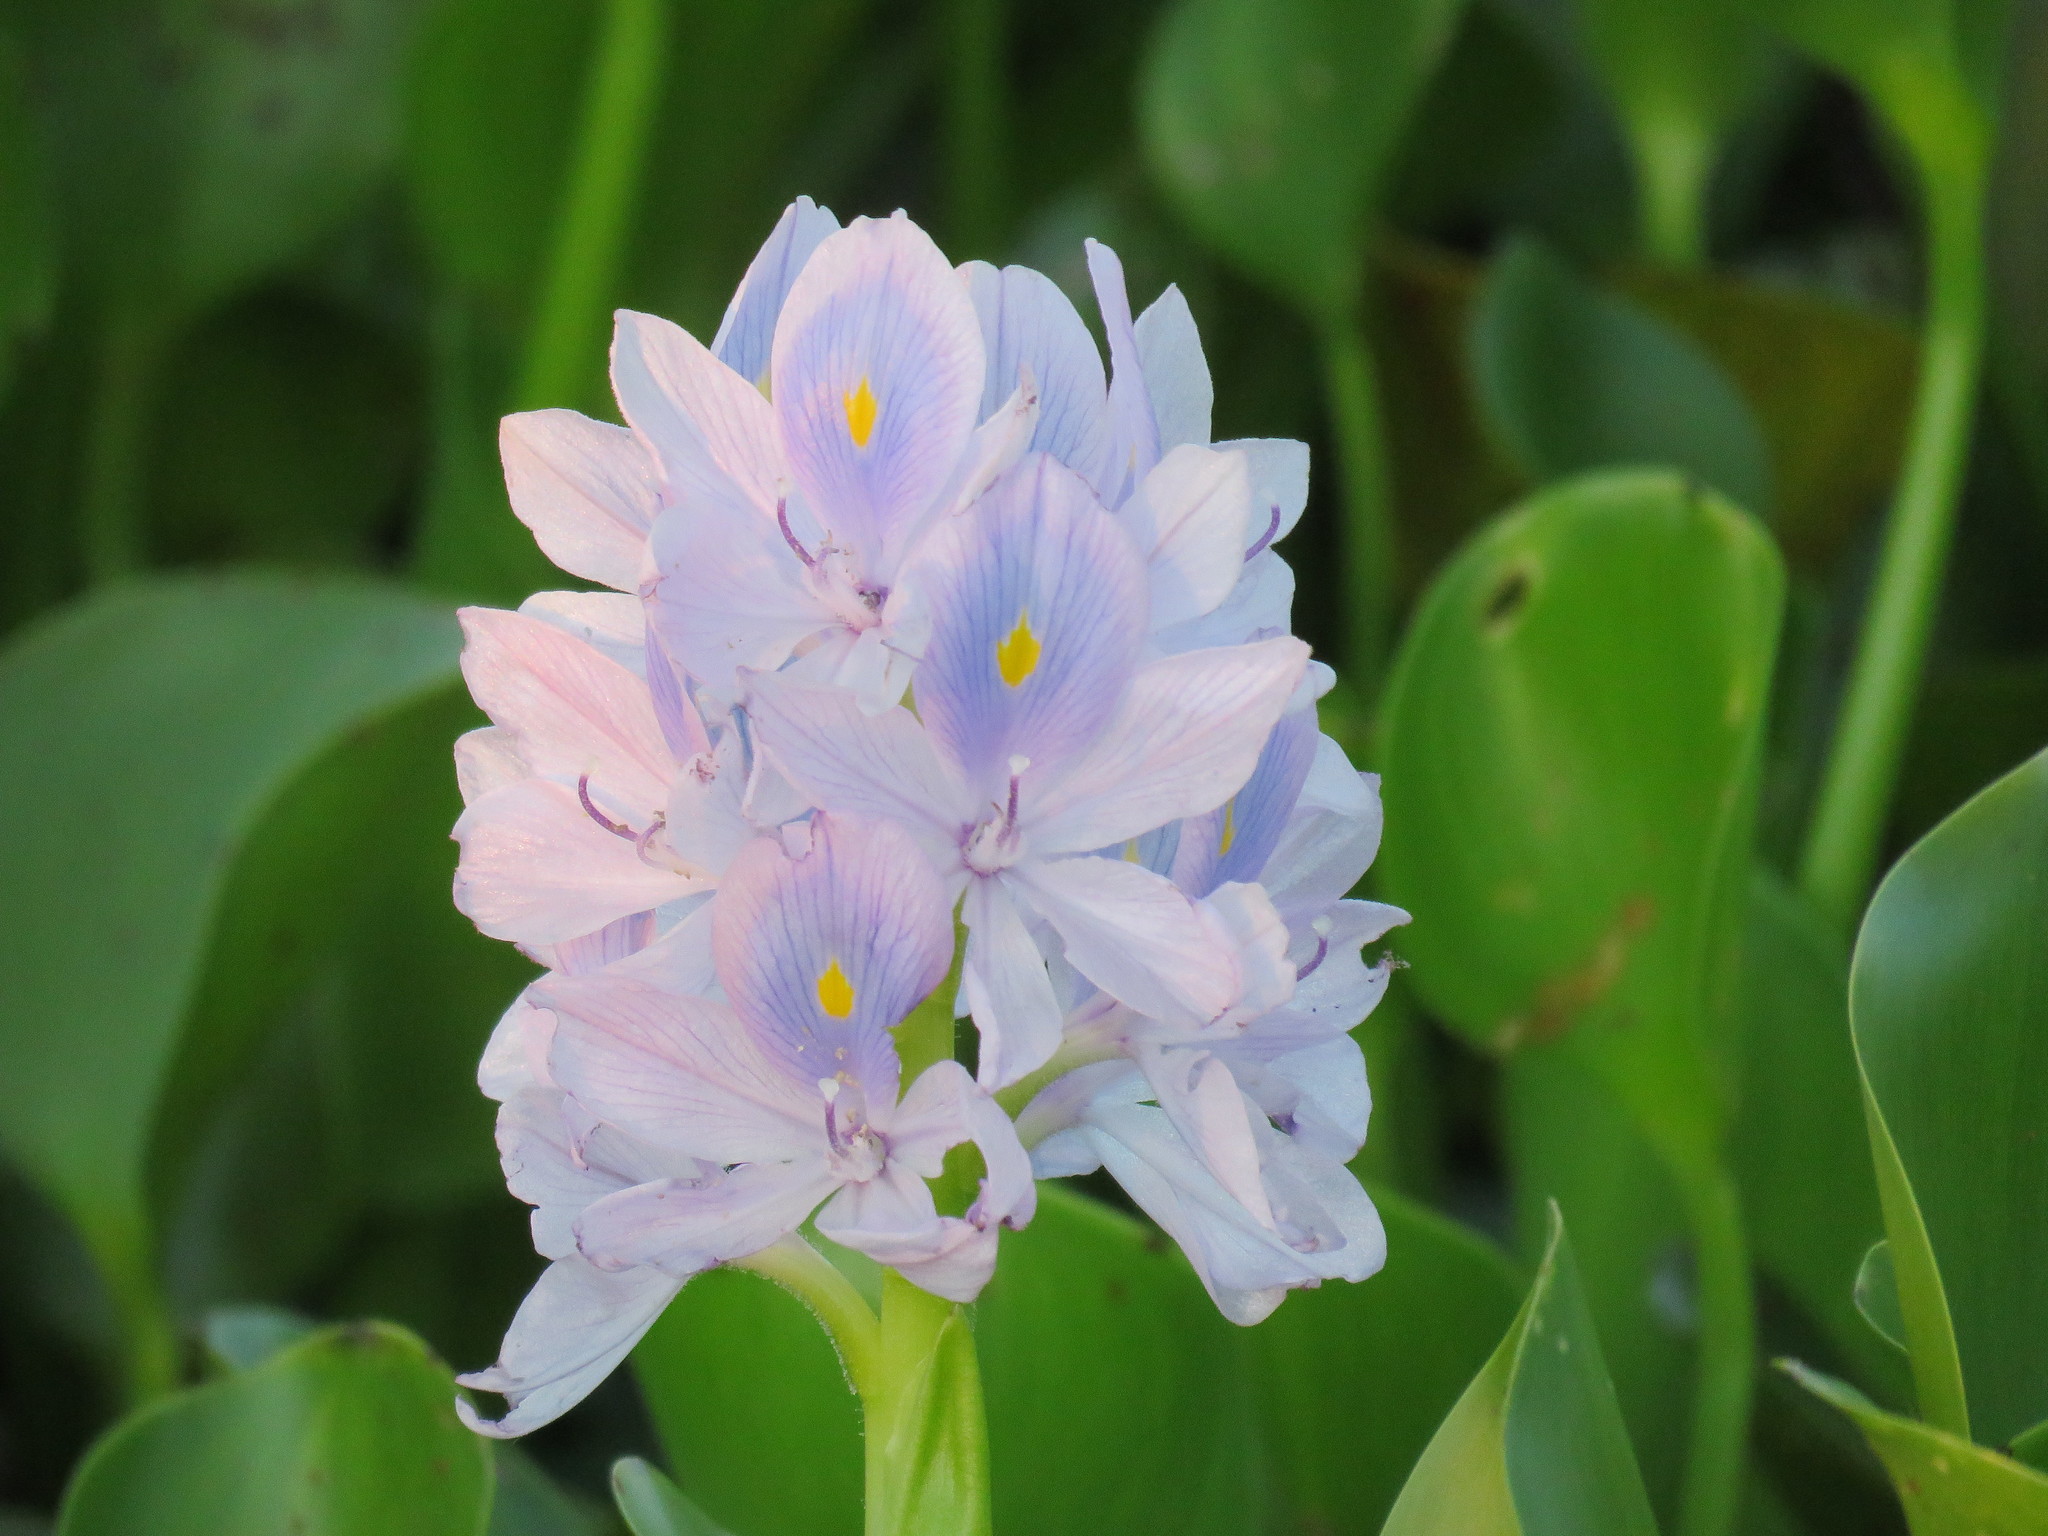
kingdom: Plantae
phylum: Tracheophyta
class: Liliopsida
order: Commelinales
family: Pontederiaceae
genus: Pontederia
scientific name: Pontederia crassipes
